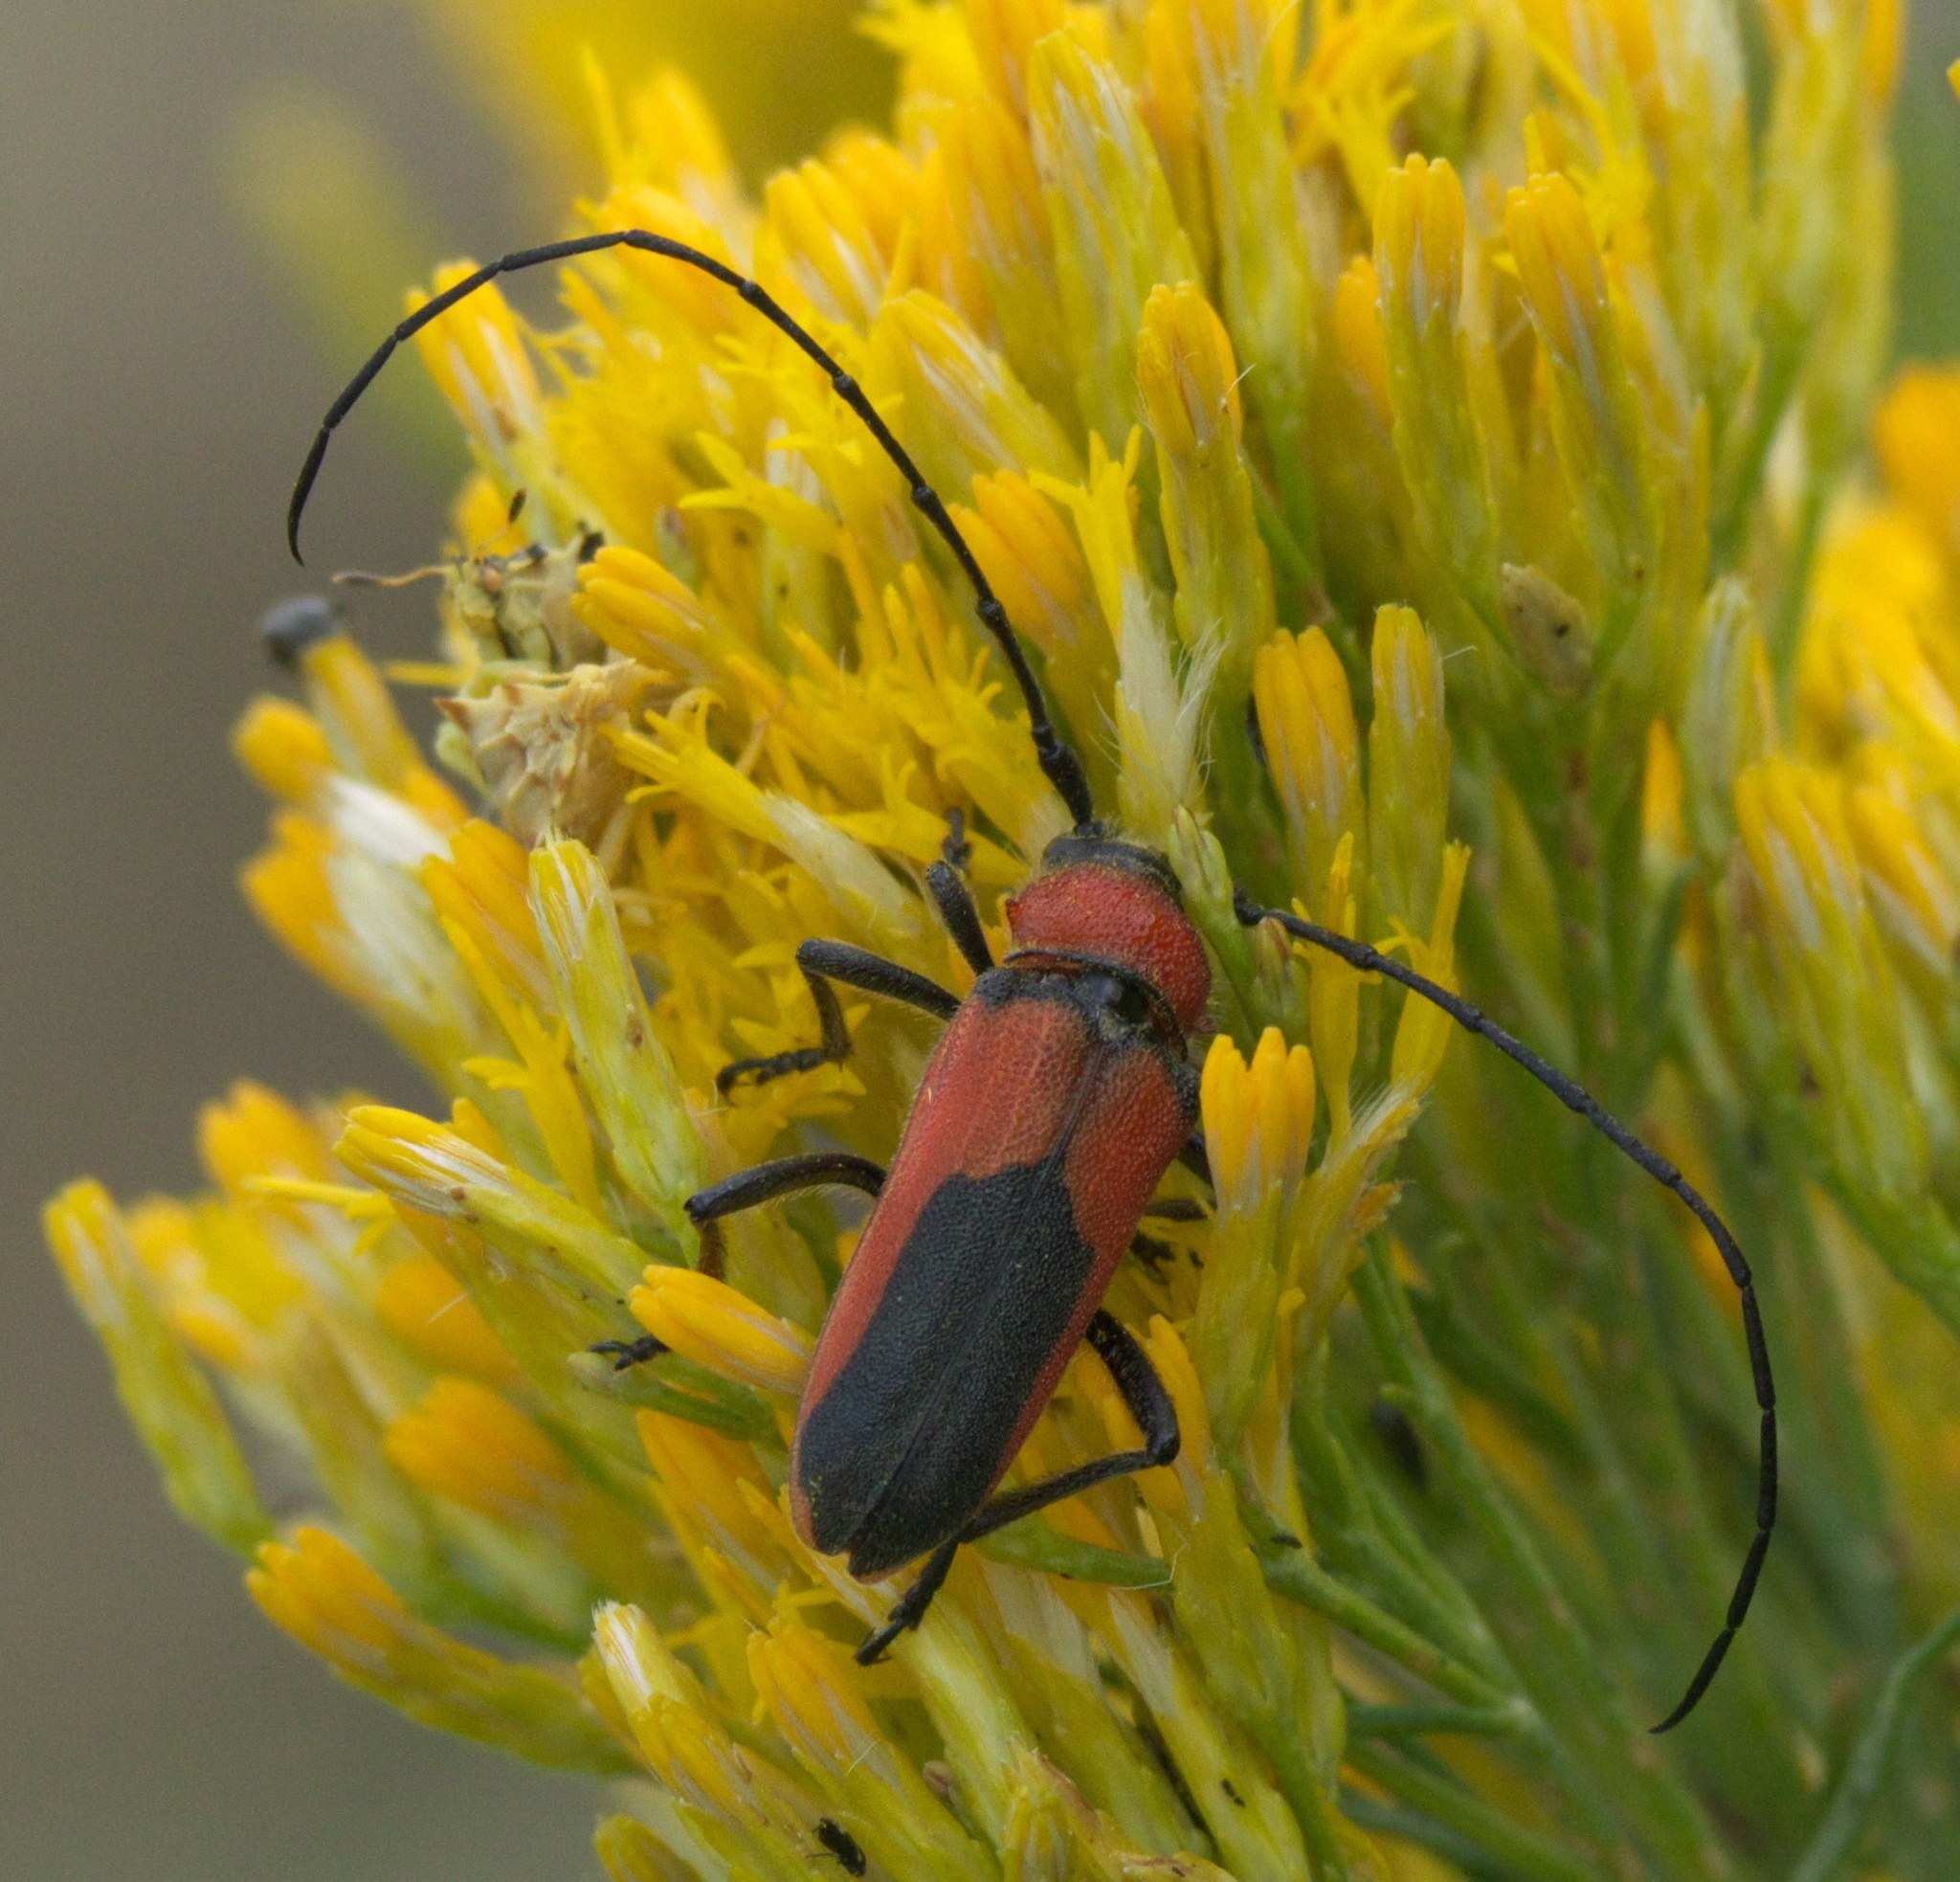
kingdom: Animalia
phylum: Arthropoda
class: Insecta
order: Coleoptera
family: Cerambycidae
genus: Crossidius
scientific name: Crossidius coralinus
